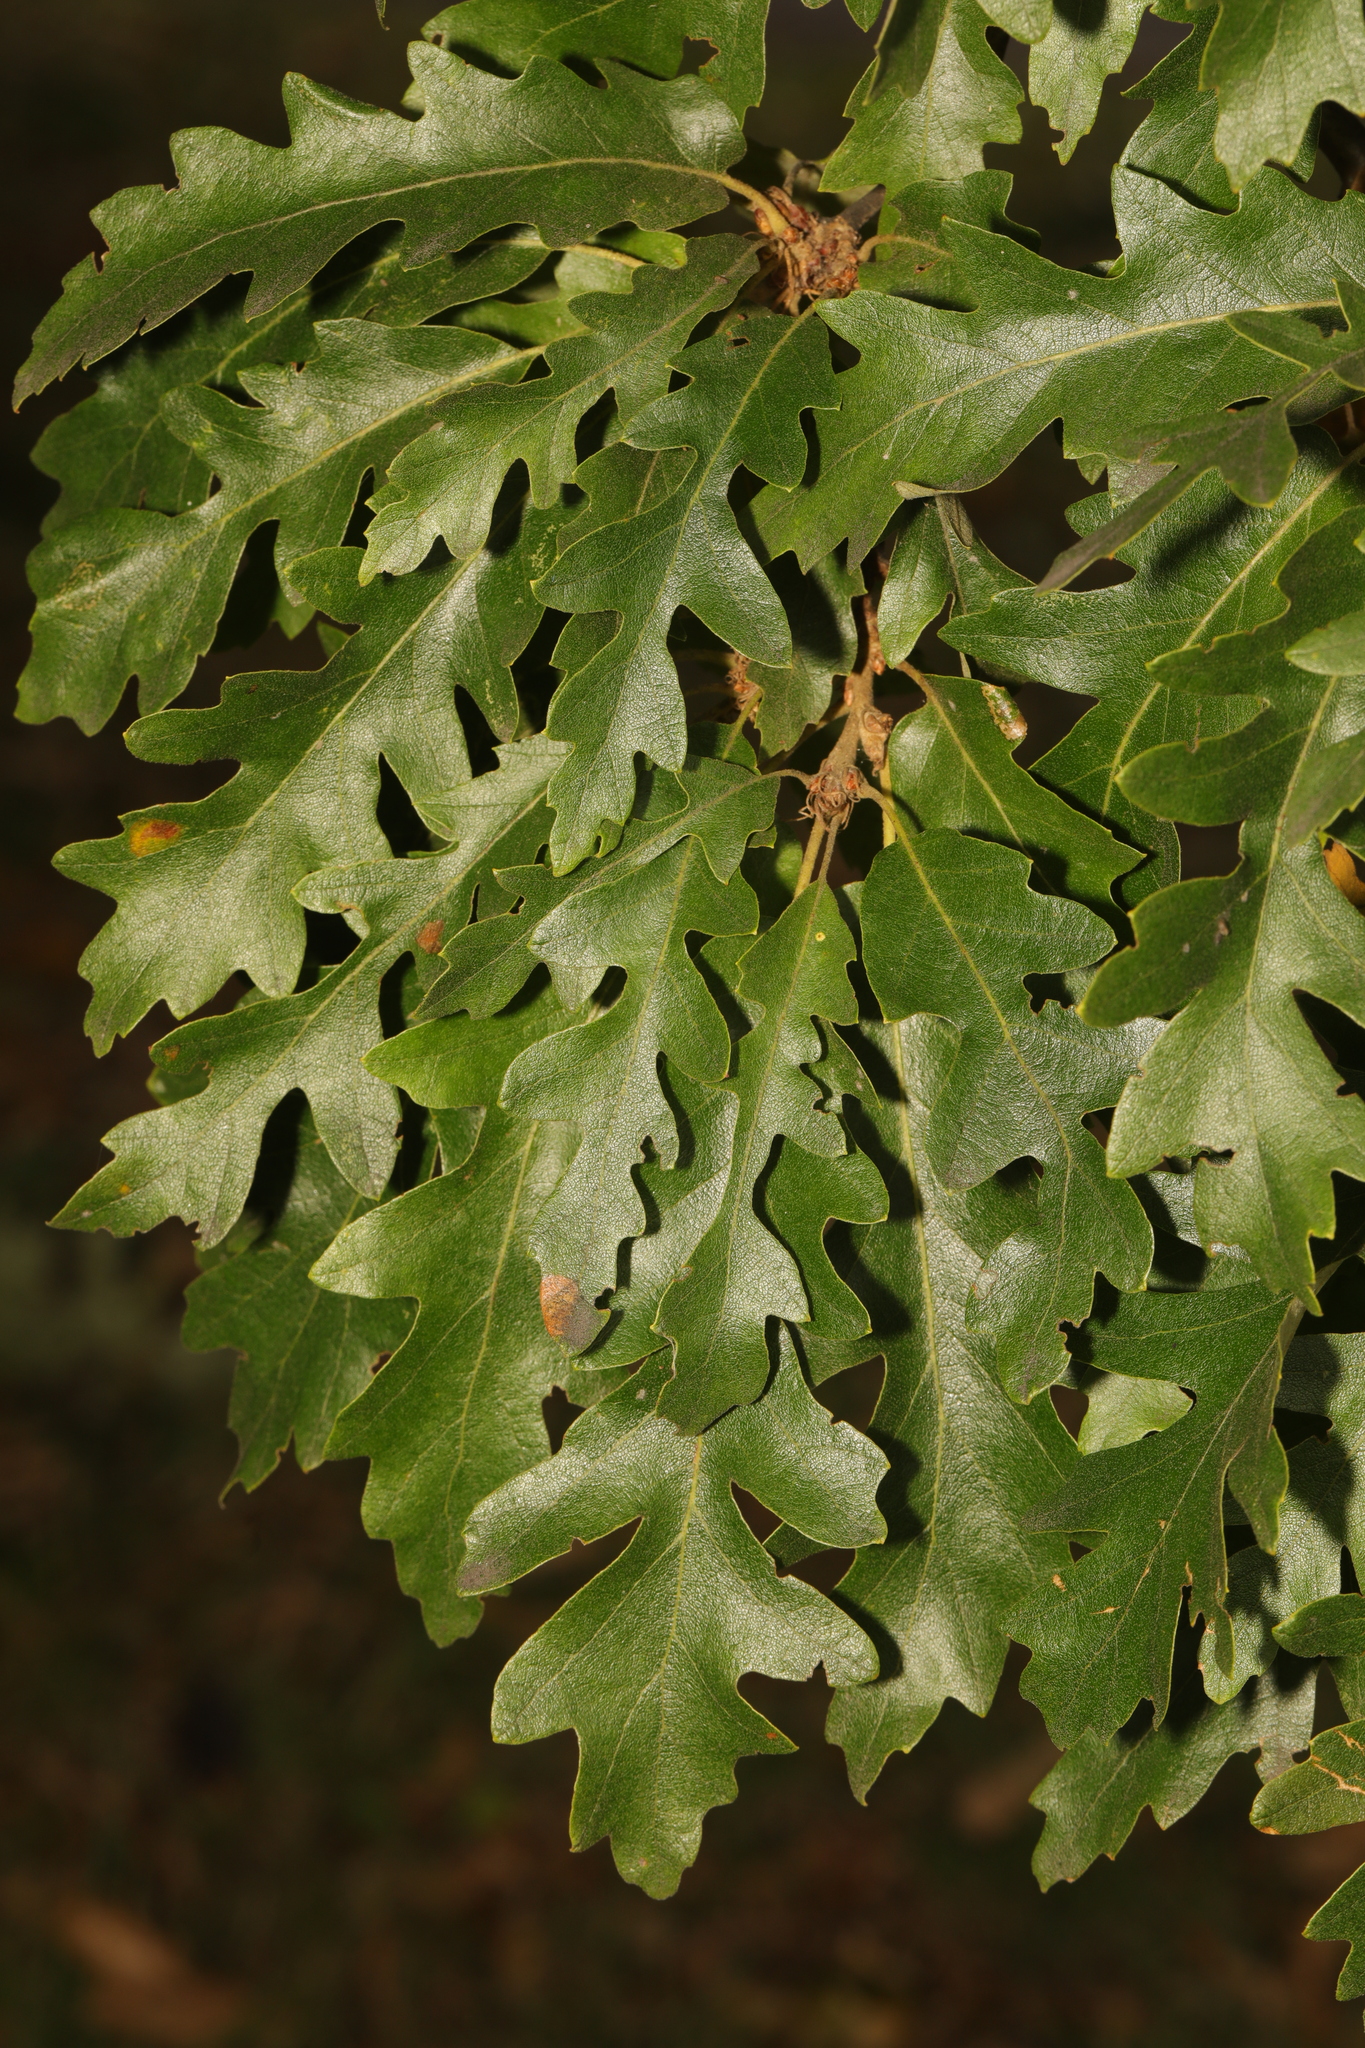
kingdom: Plantae
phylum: Tracheophyta
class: Magnoliopsida
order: Fagales
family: Fagaceae
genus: Quercus
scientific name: Quercus cerris
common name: Turkey oak
